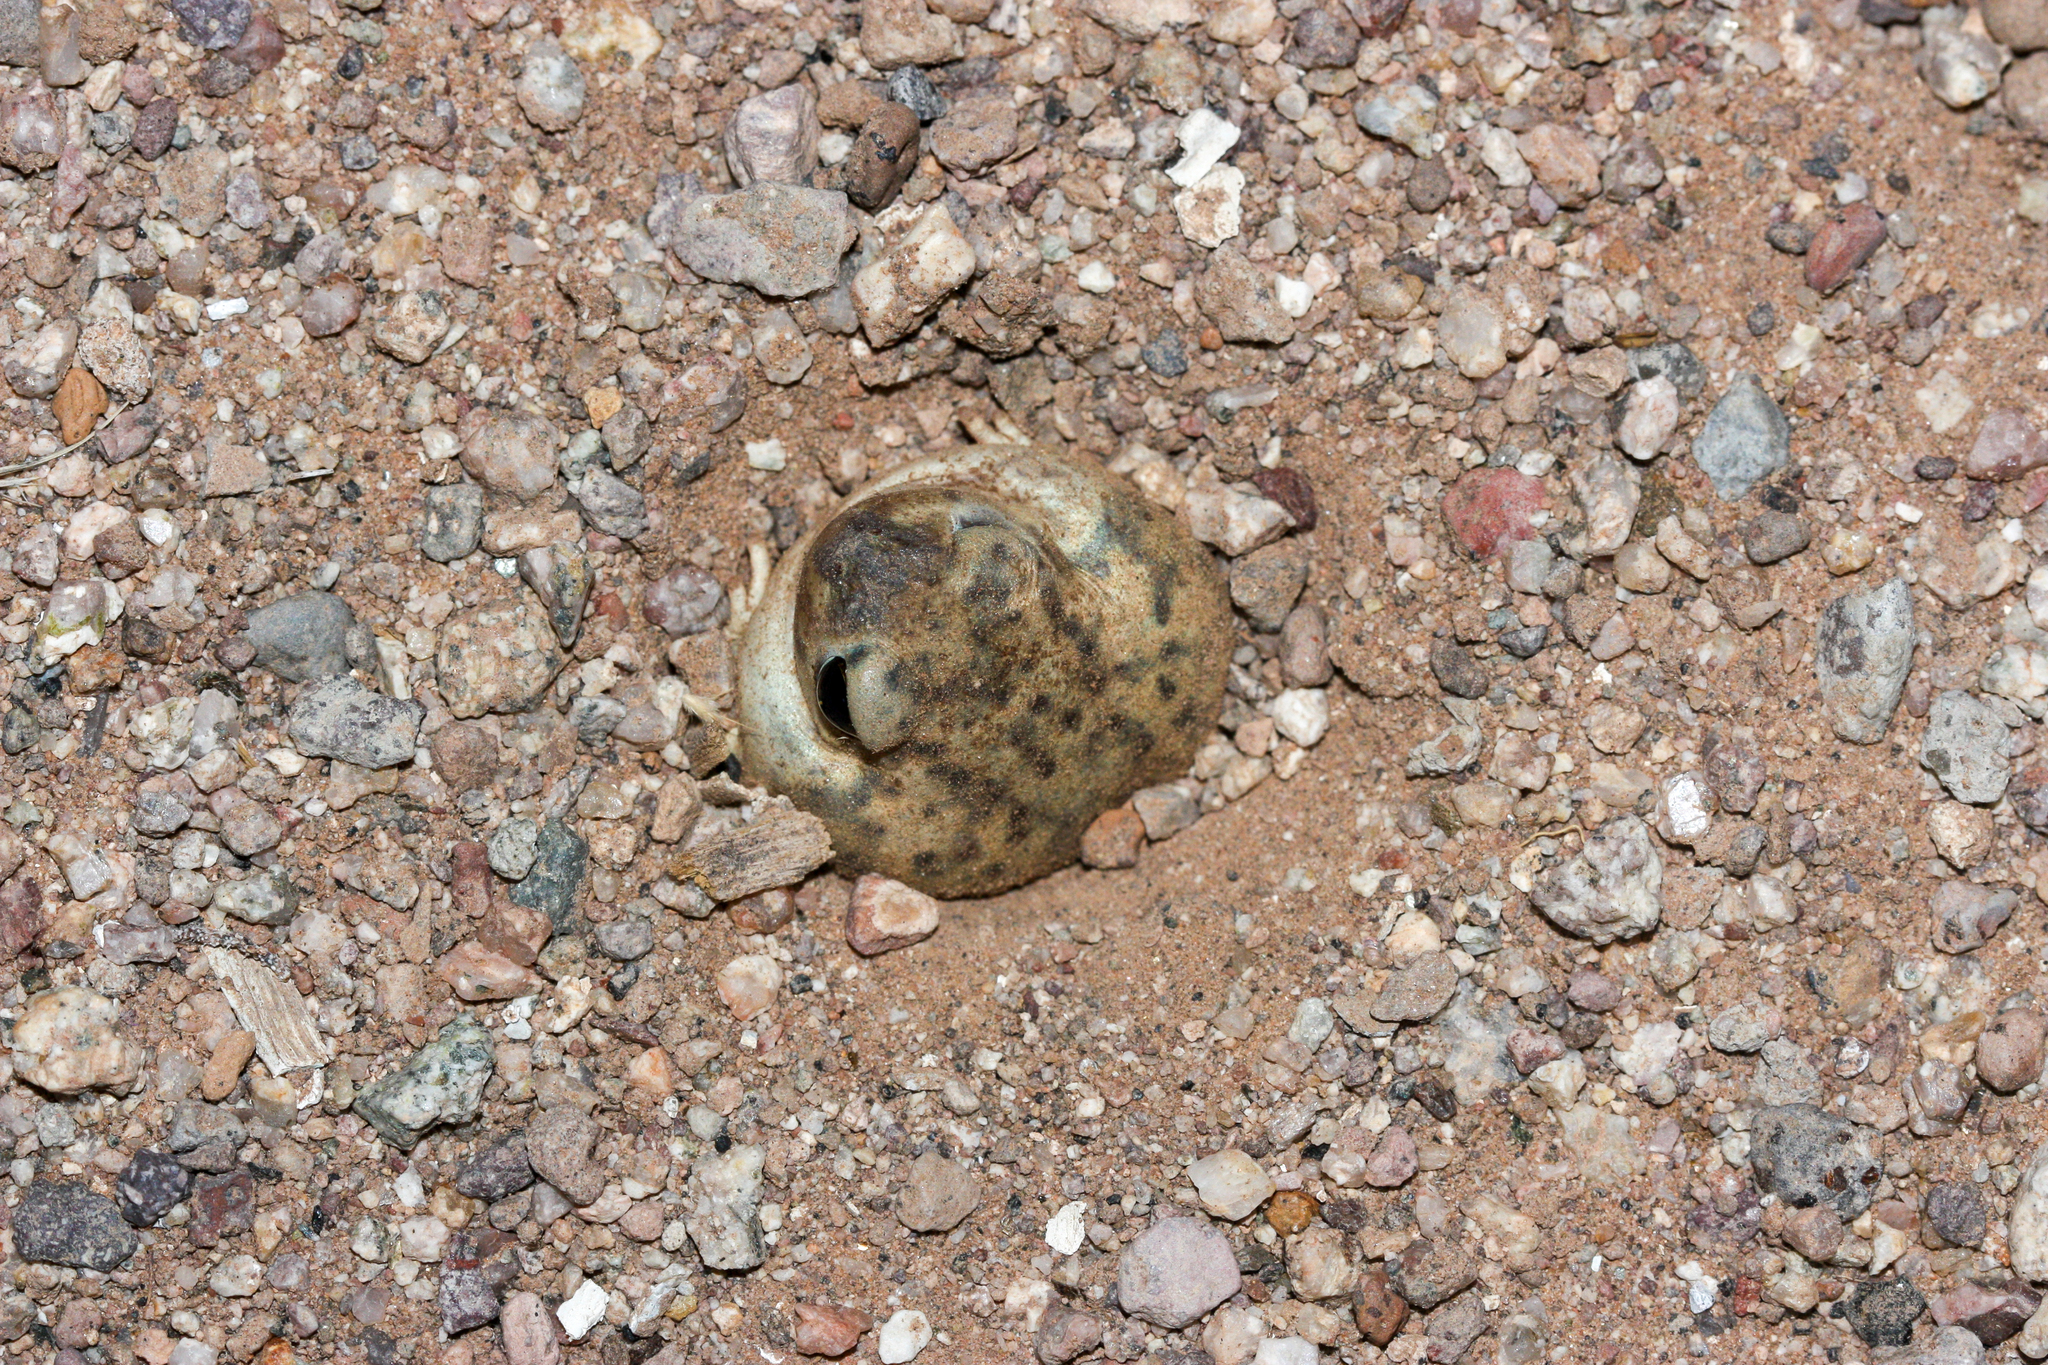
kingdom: Animalia
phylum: Chordata
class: Amphibia
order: Anura
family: Scaphiopodidae
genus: Scaphiopus
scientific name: Scaphiopus couchii
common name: Couch's spadefoot toad
